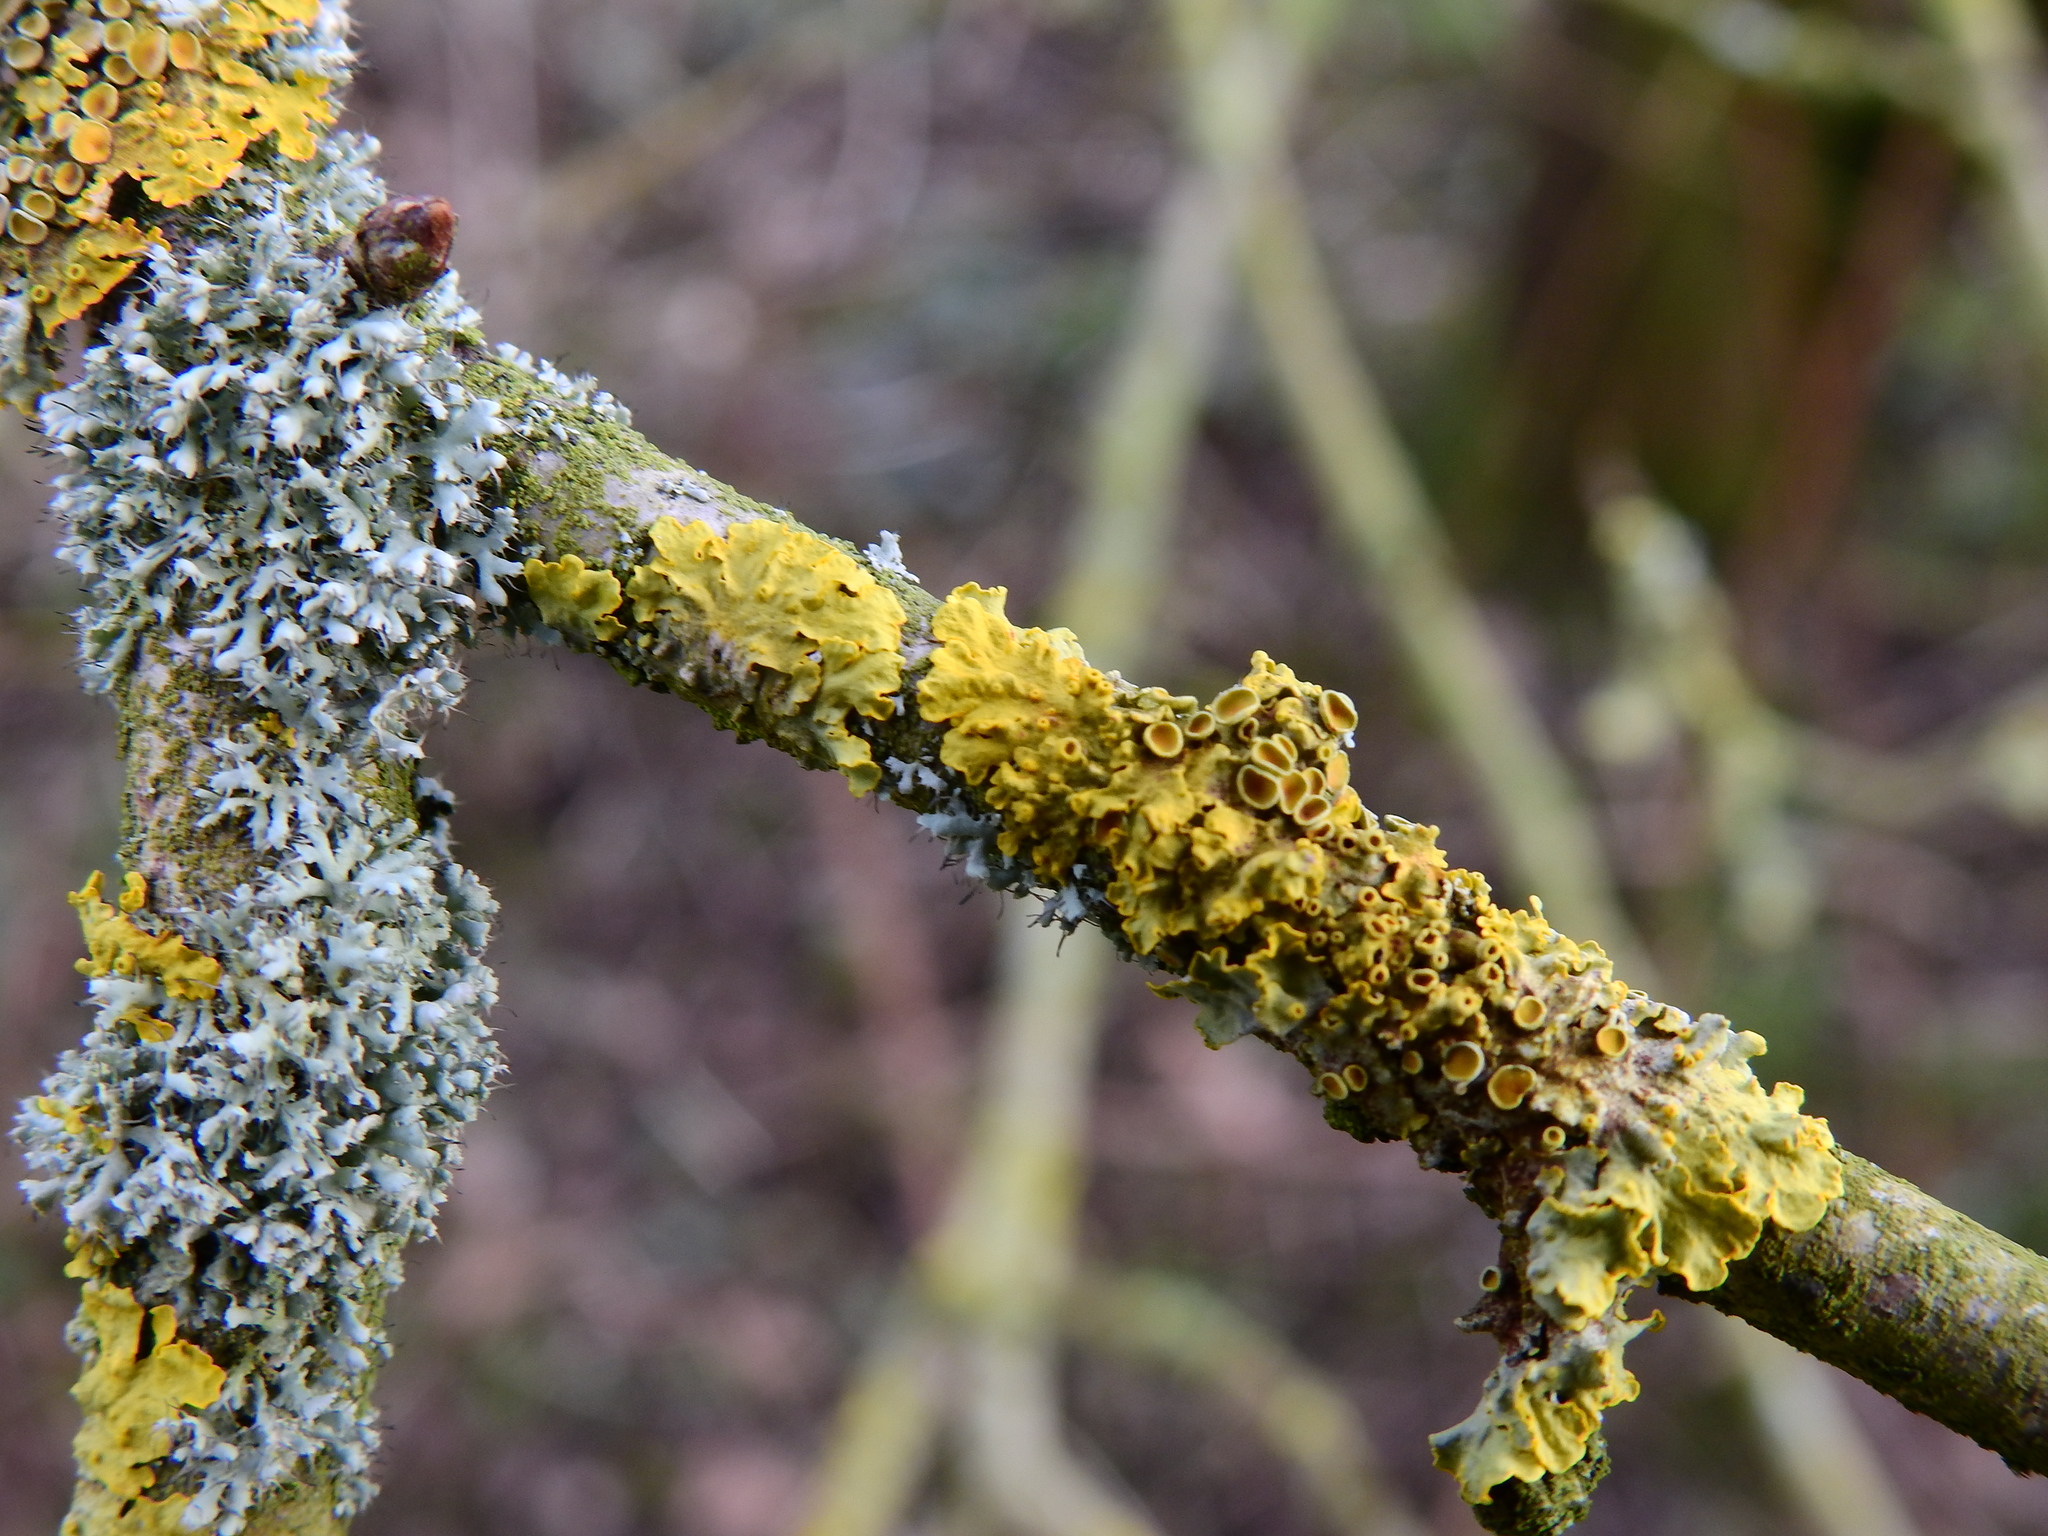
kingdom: Fungi
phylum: Ascomycota
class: Lecanoromycetes
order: Caliciales
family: Physciaceae
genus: Physcia
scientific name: Physcia adscendens
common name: Hooded rosette lichen
